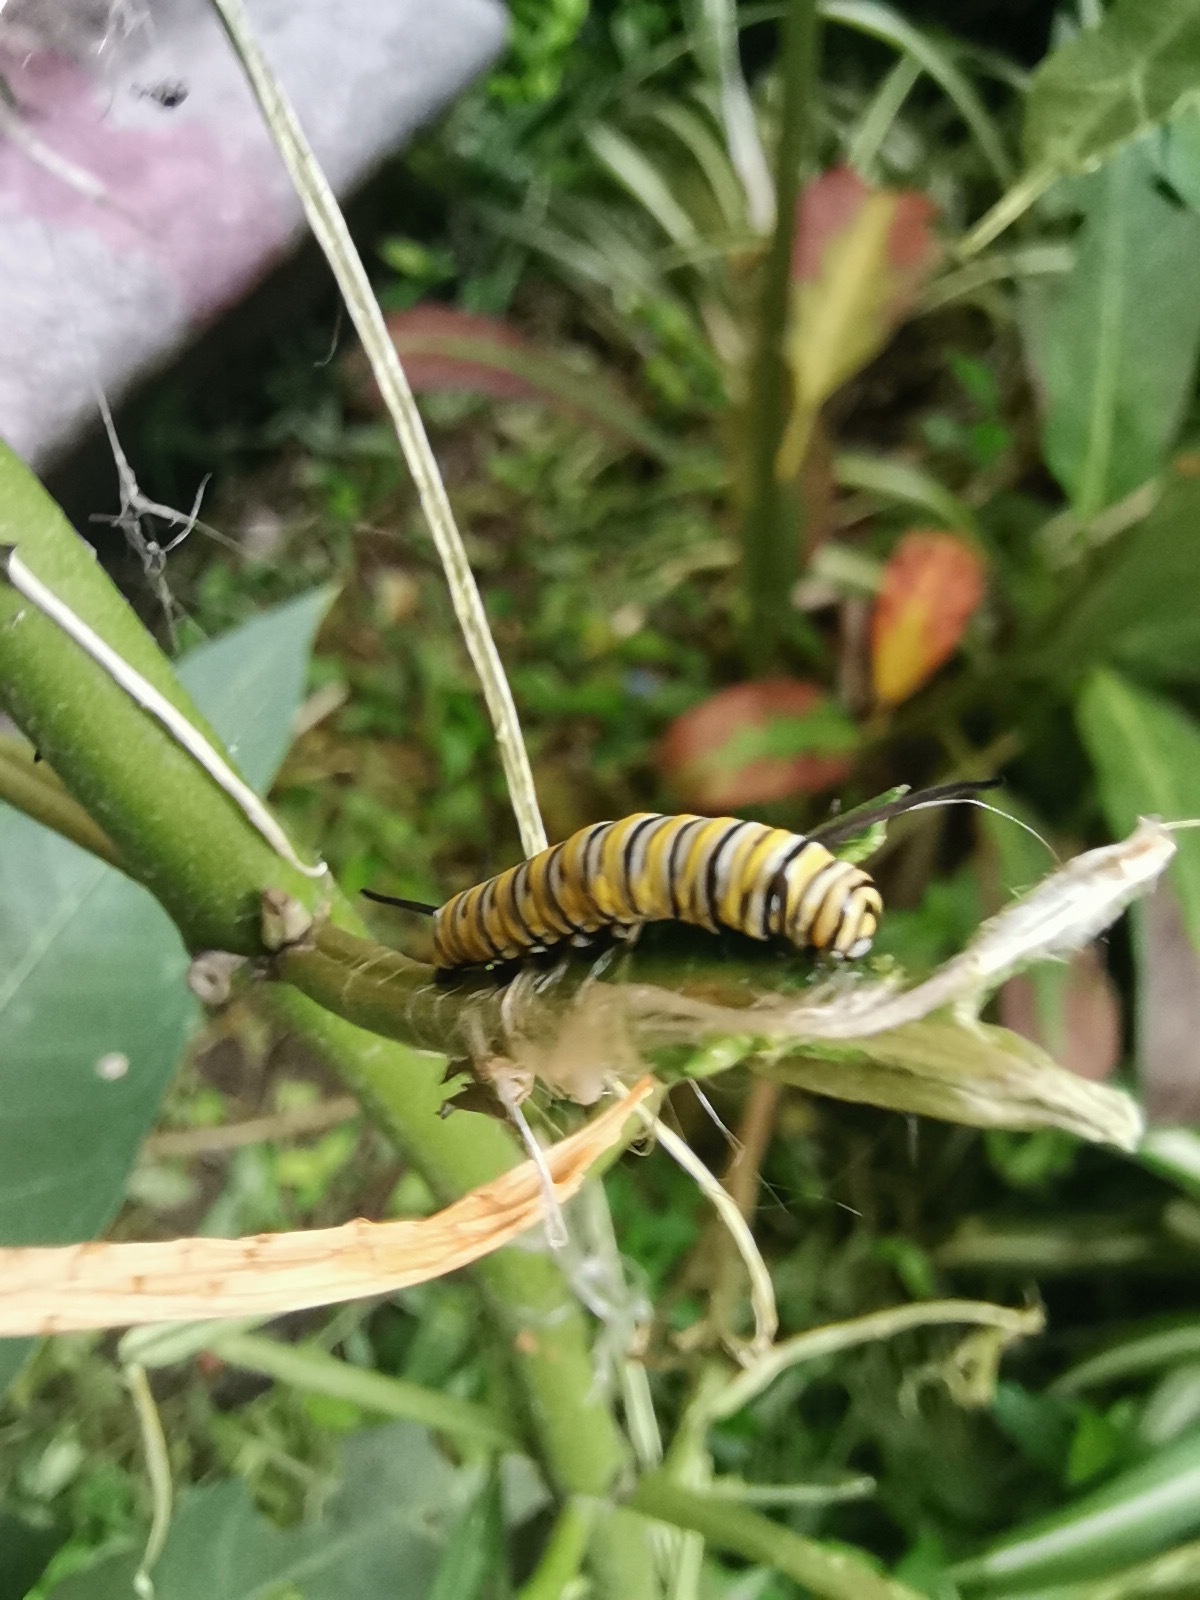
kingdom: Animalia
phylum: Arthropoda
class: Insecta
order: Lepidoptera
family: Nymphalidae
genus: Danaus
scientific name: Danaus plexippus
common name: Monarch
